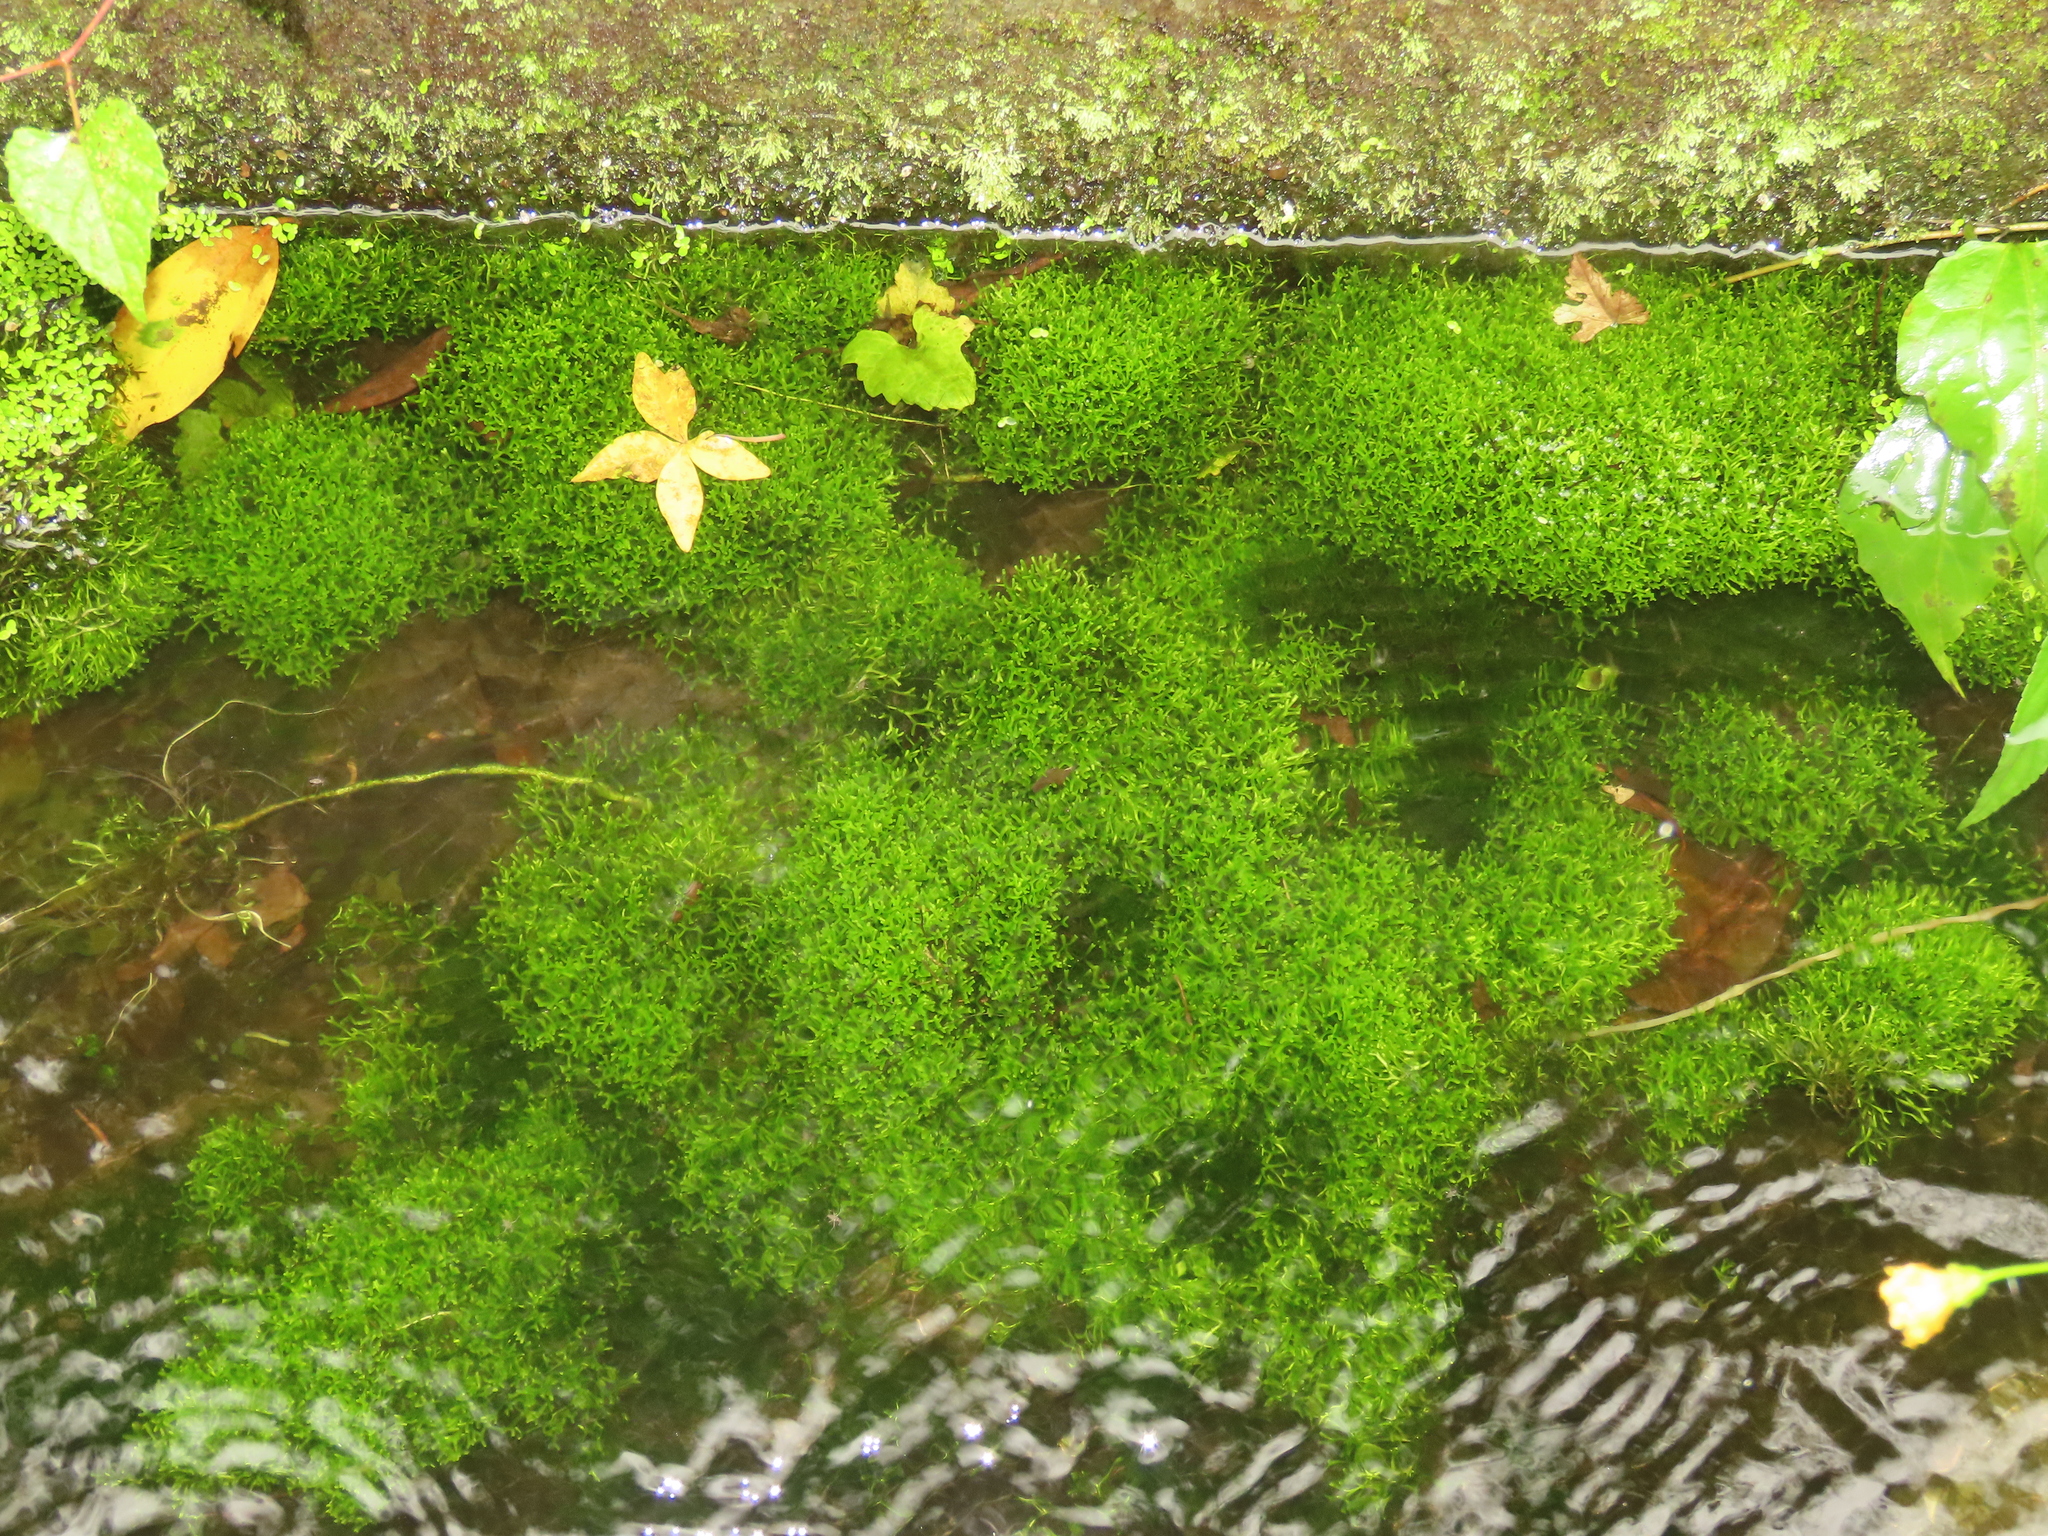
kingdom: Plantae
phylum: Marchantiophyta
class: Marchantiopsida
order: Marchantiales
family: Ricciaceae
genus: Riccia
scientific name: Riccia fluitans
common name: Floating crystalwort
